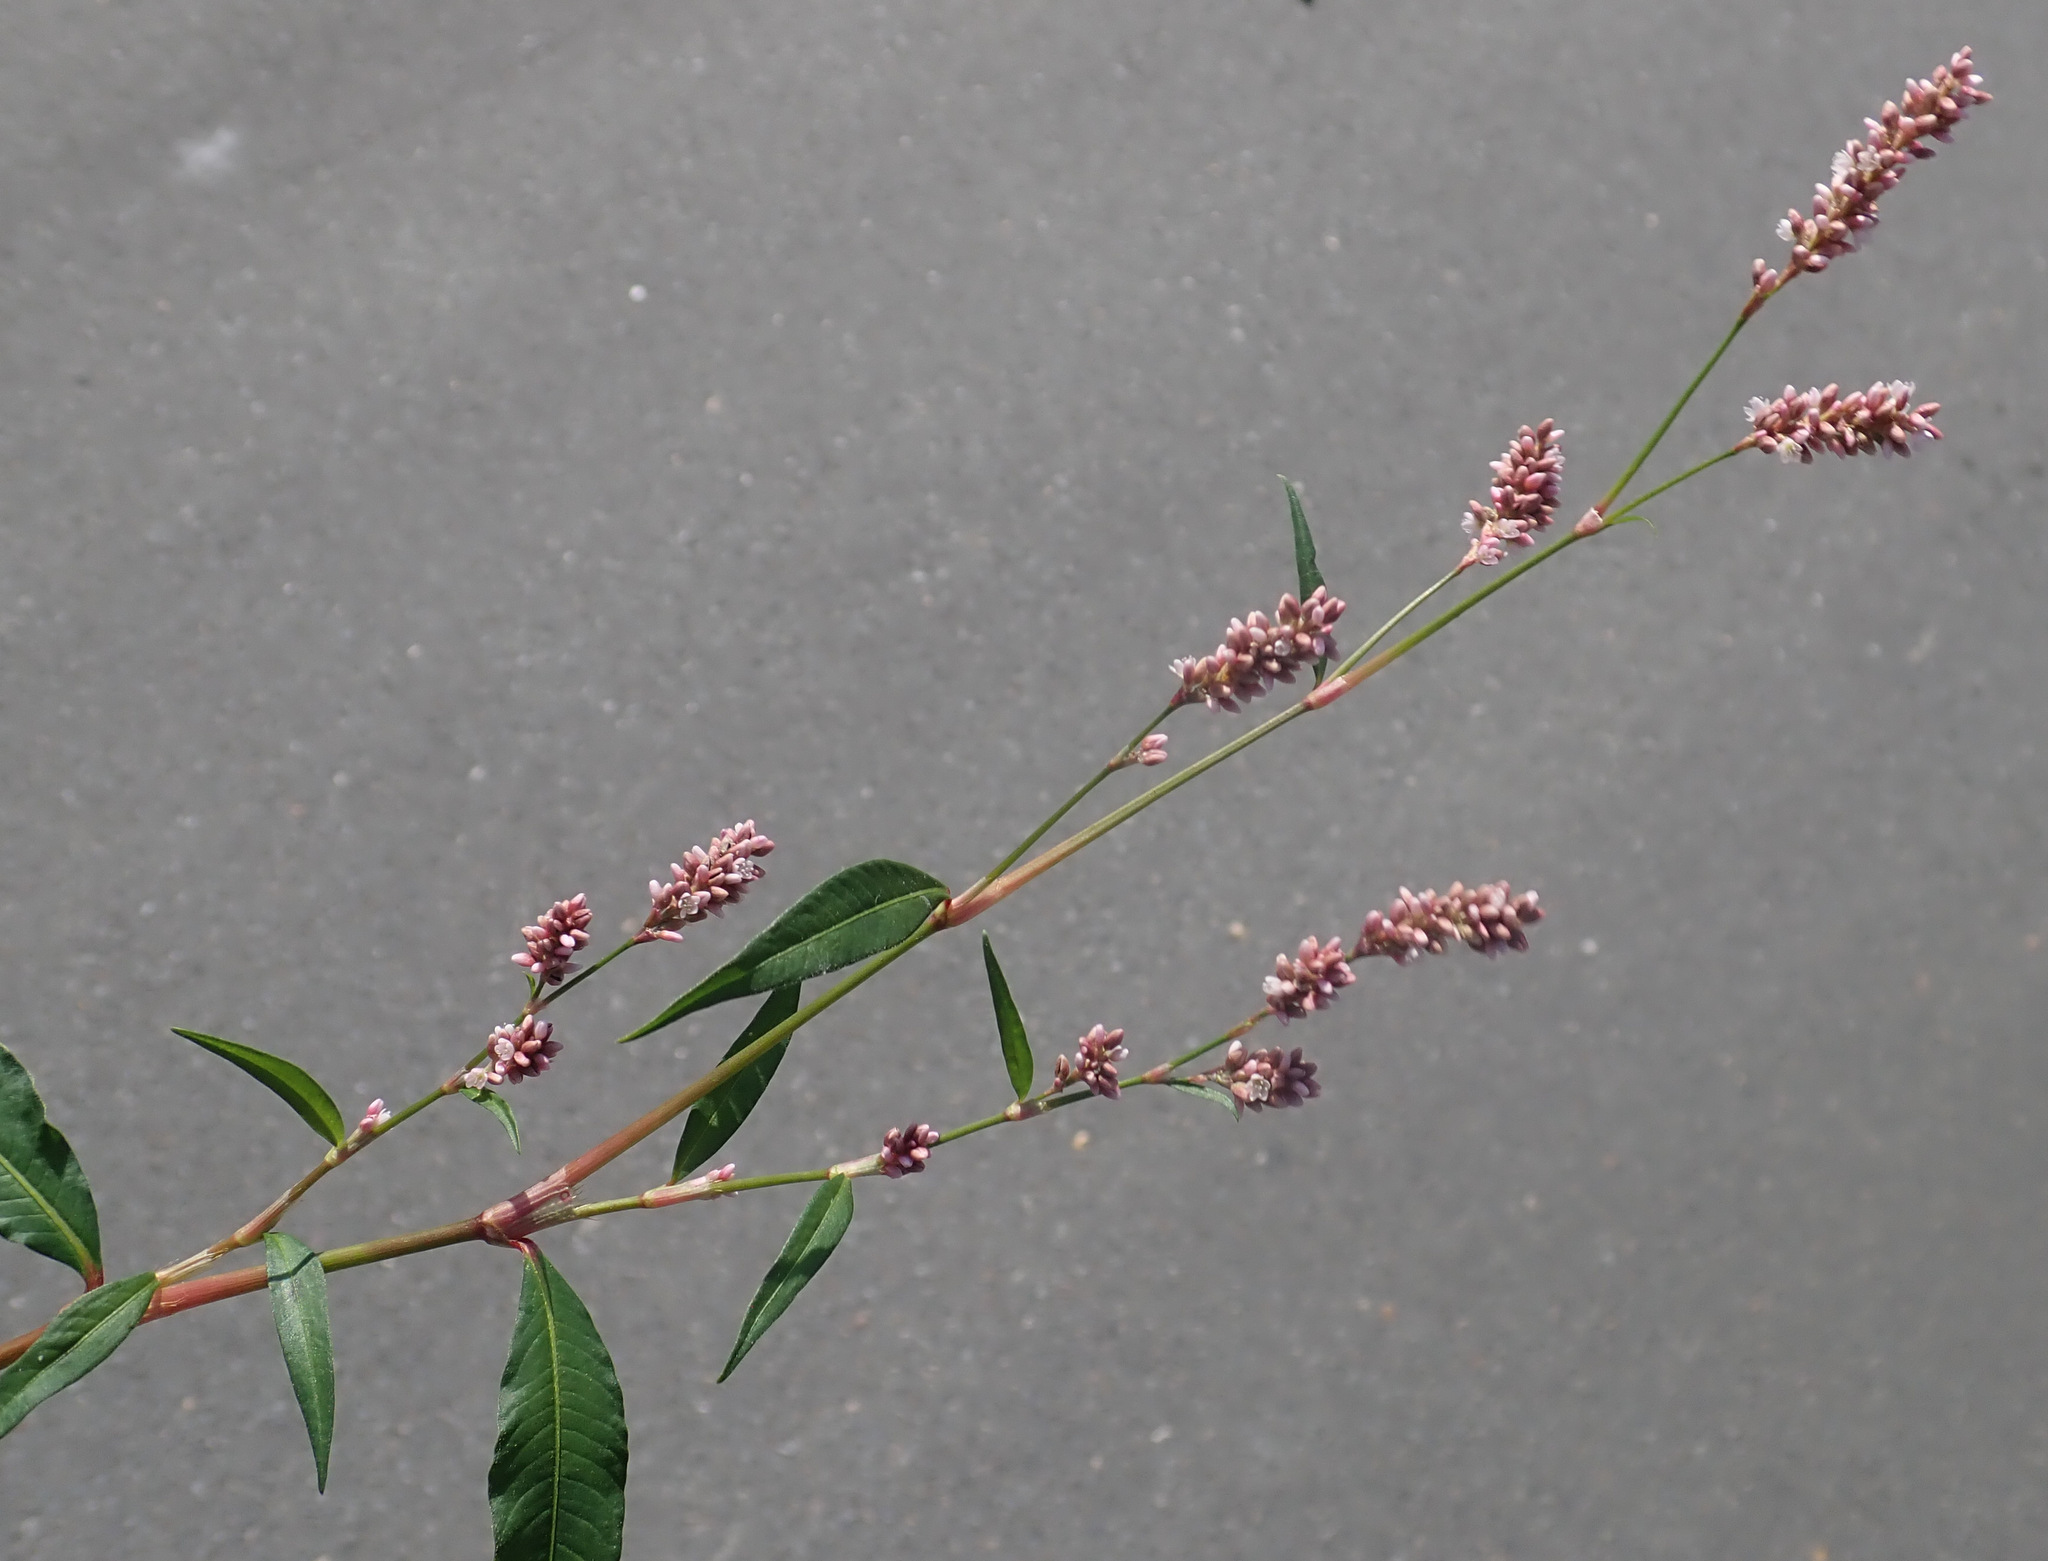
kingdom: Plantae
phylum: Tracheophyta
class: Magnoliopsida
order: Caryophyllales
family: Polygonaceae
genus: Persicaria
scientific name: Persicaria maculosa
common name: Redshank
